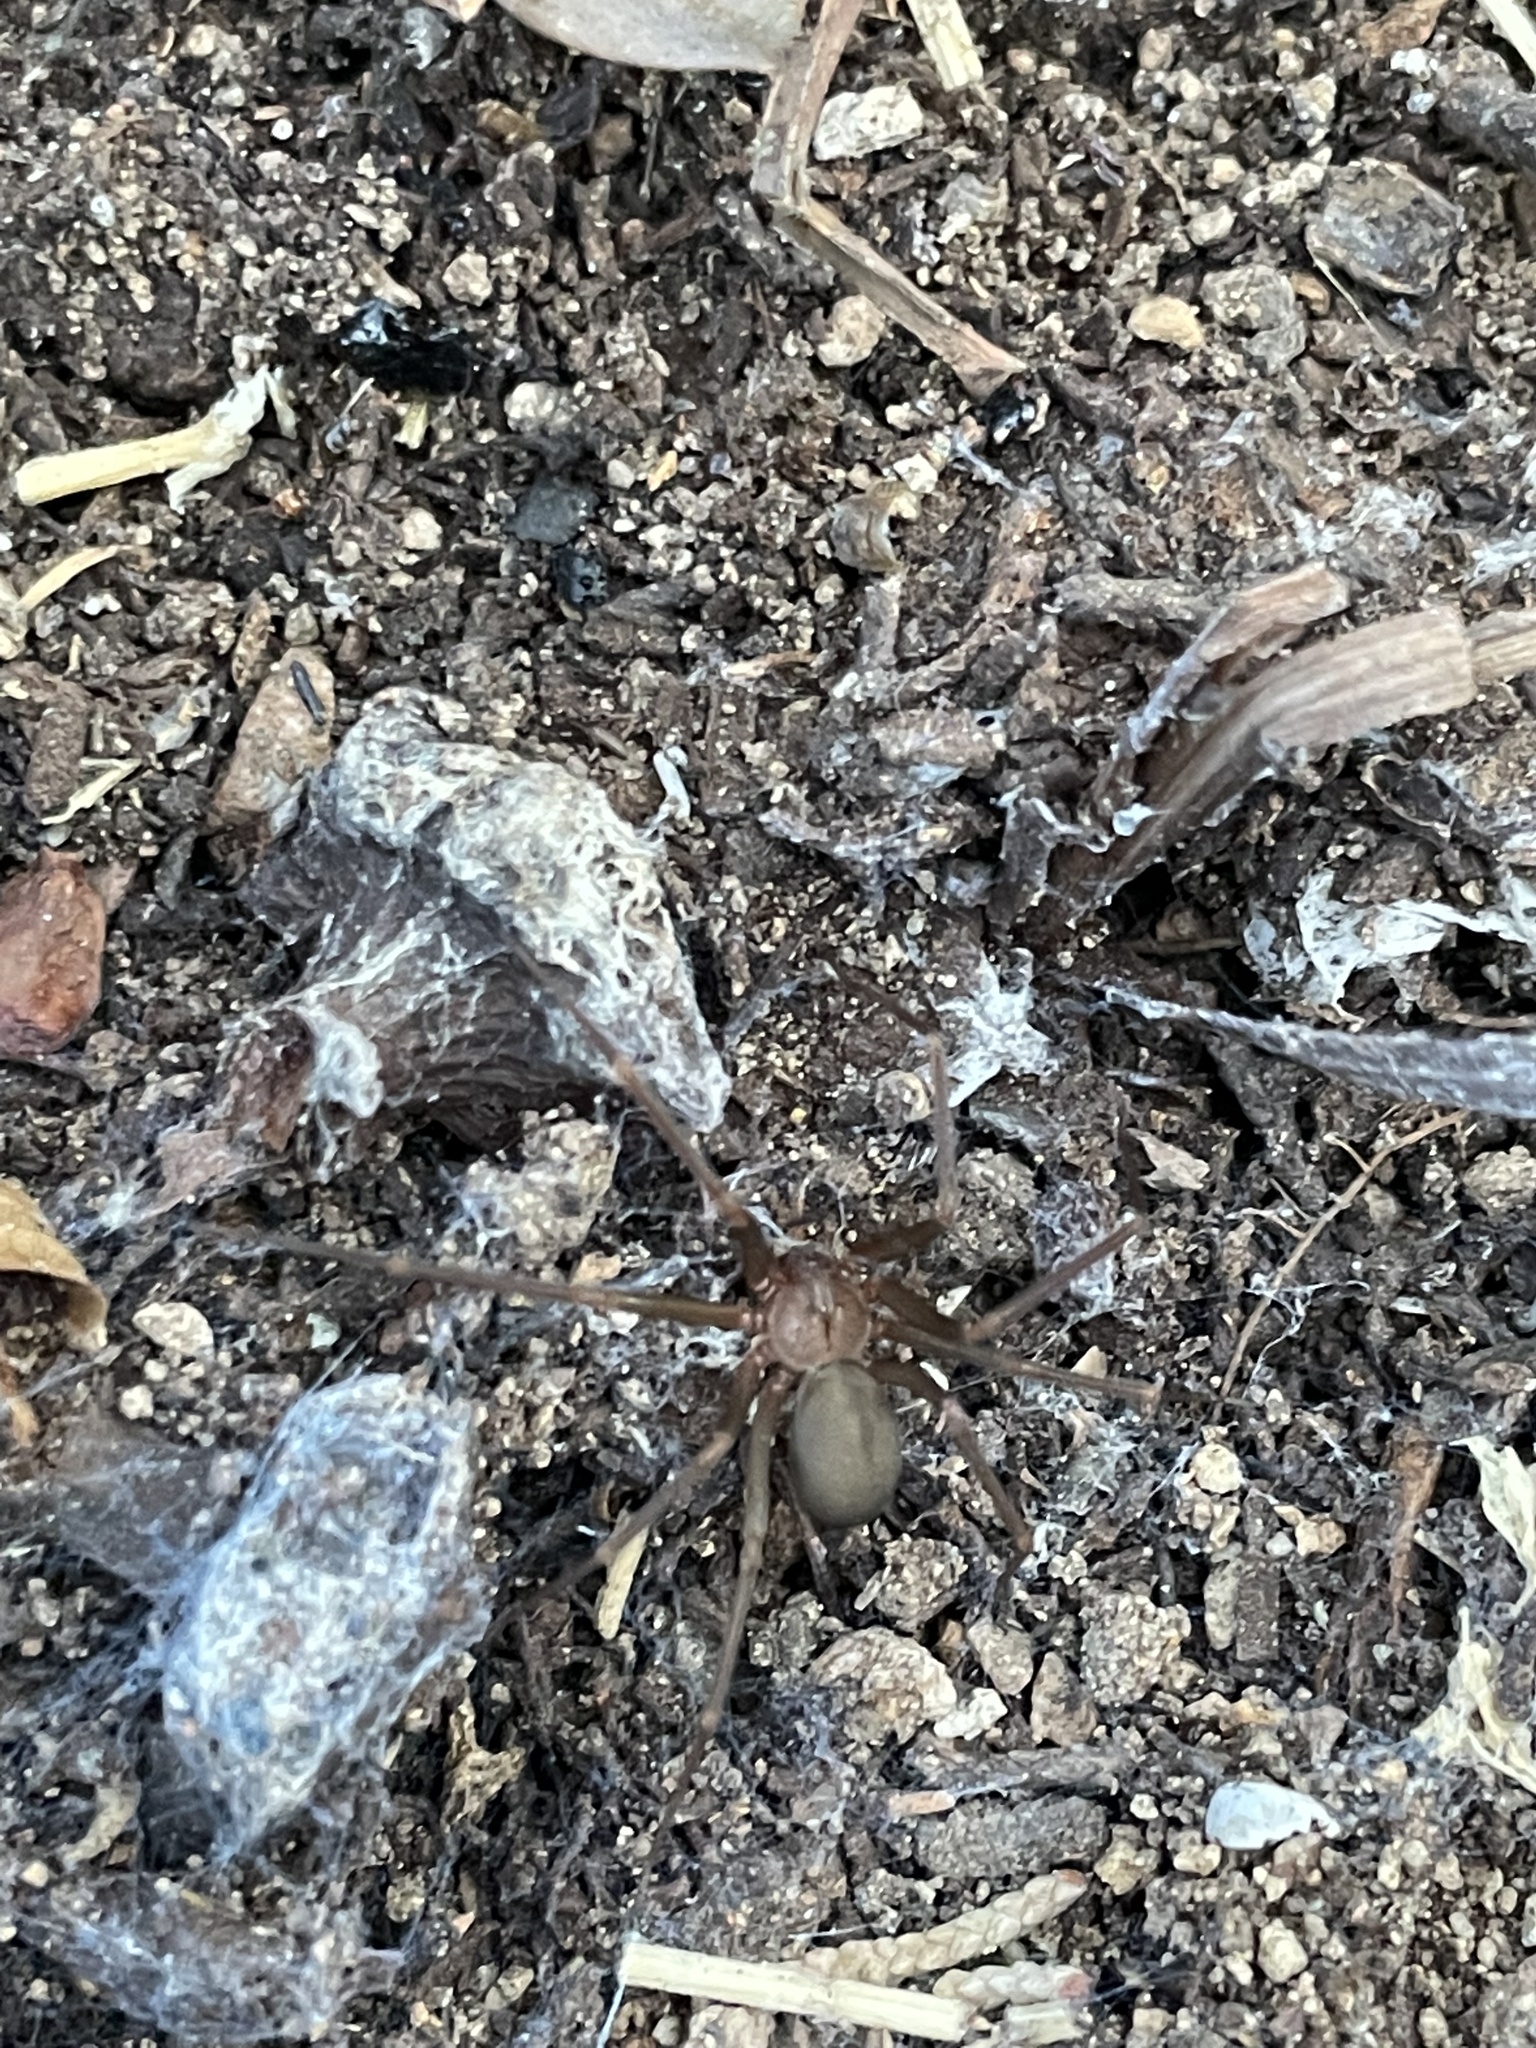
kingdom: Animalia
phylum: Arthropoda
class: Arachnida
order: Araneae
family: Sicariidae
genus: Loxosceles
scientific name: Loxosceles rufescens
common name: Mediterranean recluse spider
